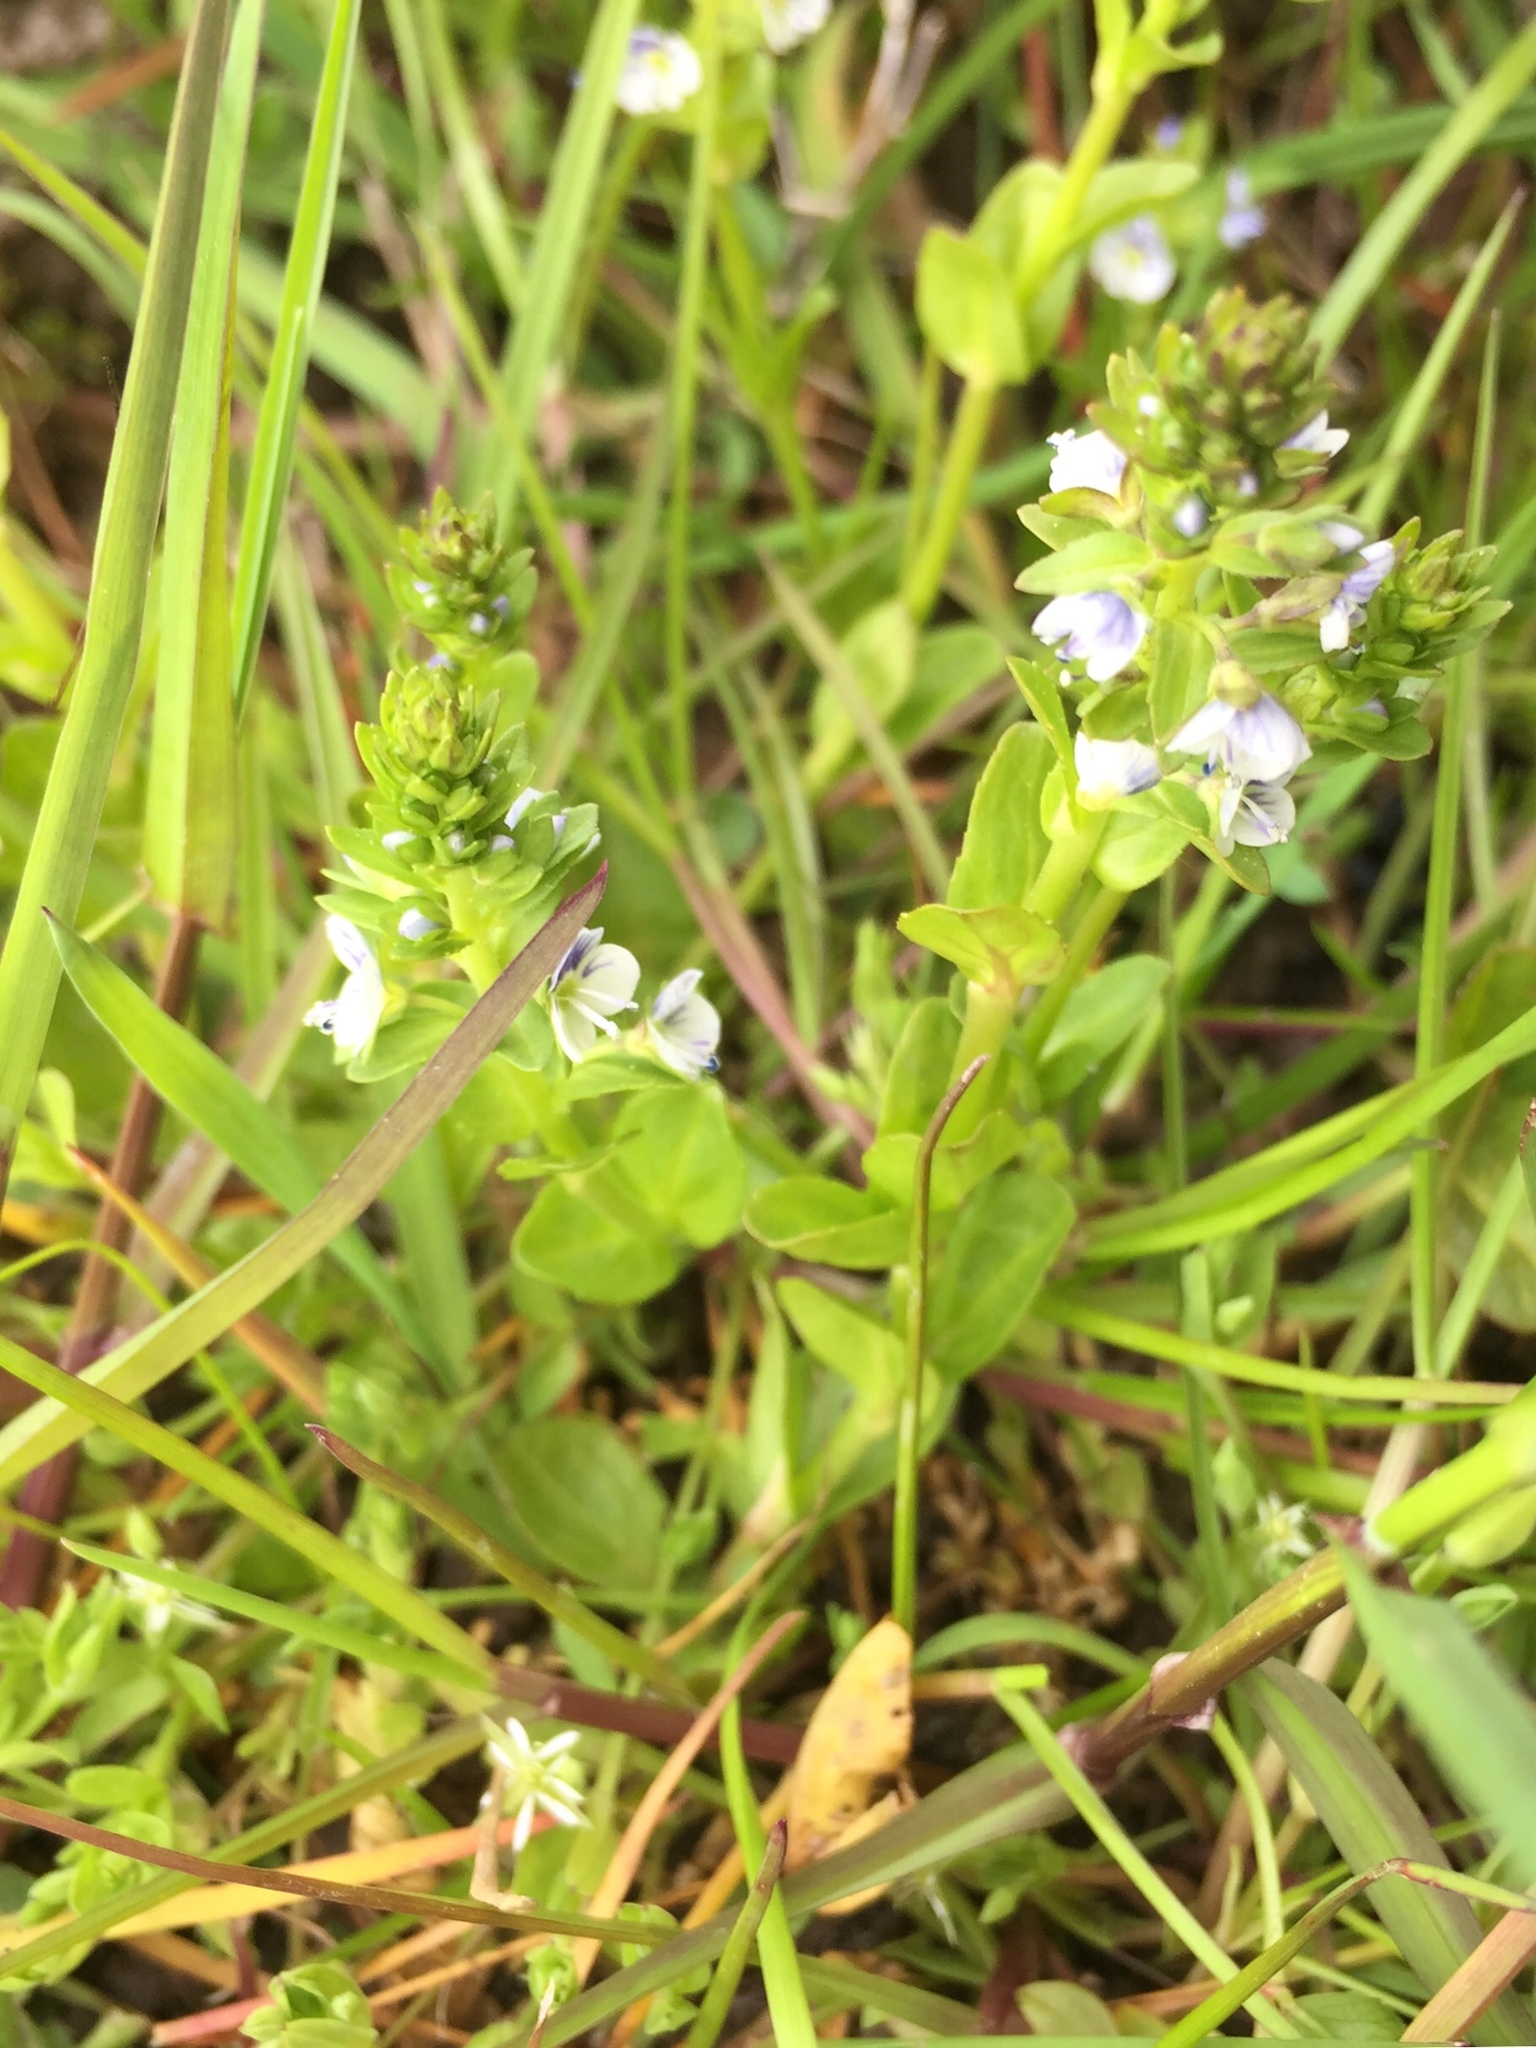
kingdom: Plantae
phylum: Tracheophyta
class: Magnoliopsida
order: Lamiales
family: Plantaginaceae
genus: Veronica
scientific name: Veronica serpyllifolia
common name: Thyme-leaved speedwell
